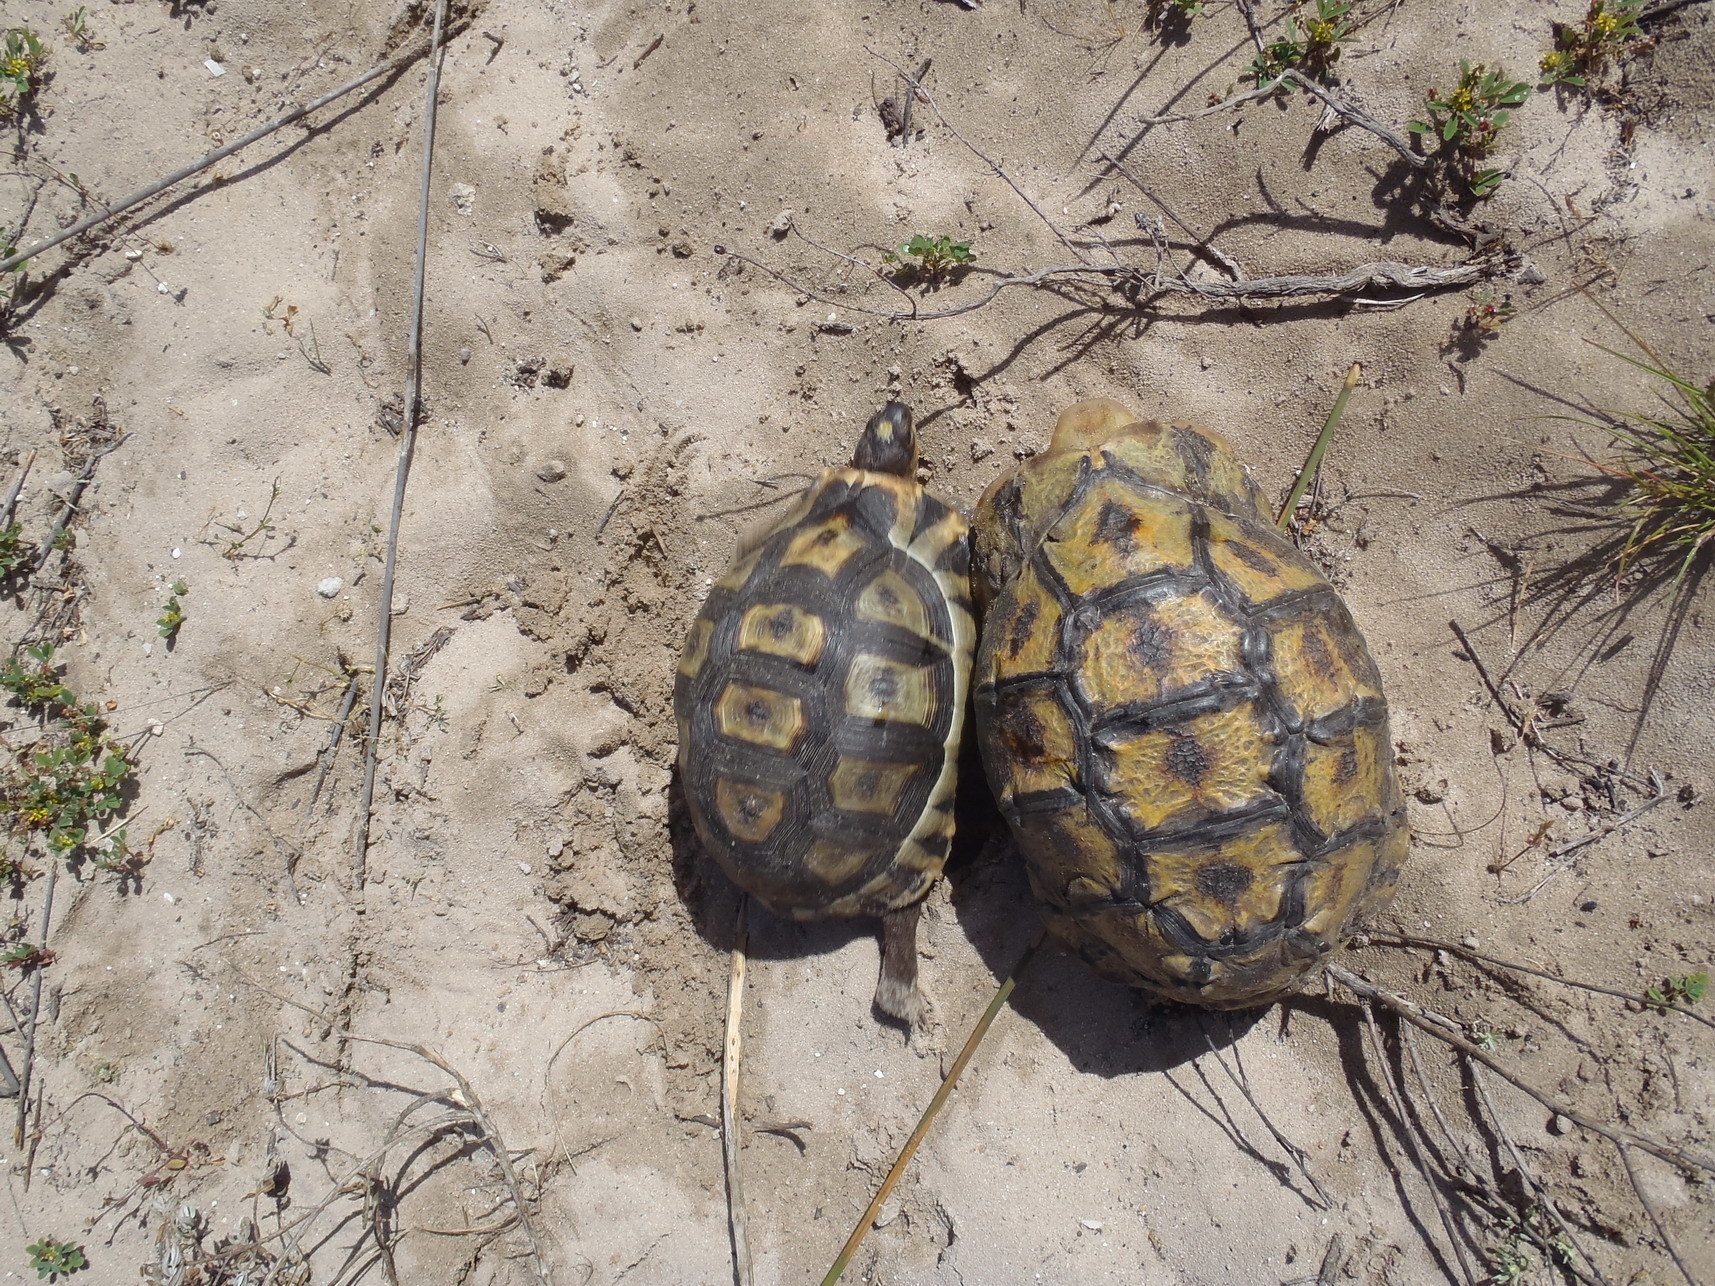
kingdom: Animalia
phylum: Chordata
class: Testudines
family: Testudinidae
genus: Chersina
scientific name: Chersina angulata
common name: South african bowsprit tortoise
